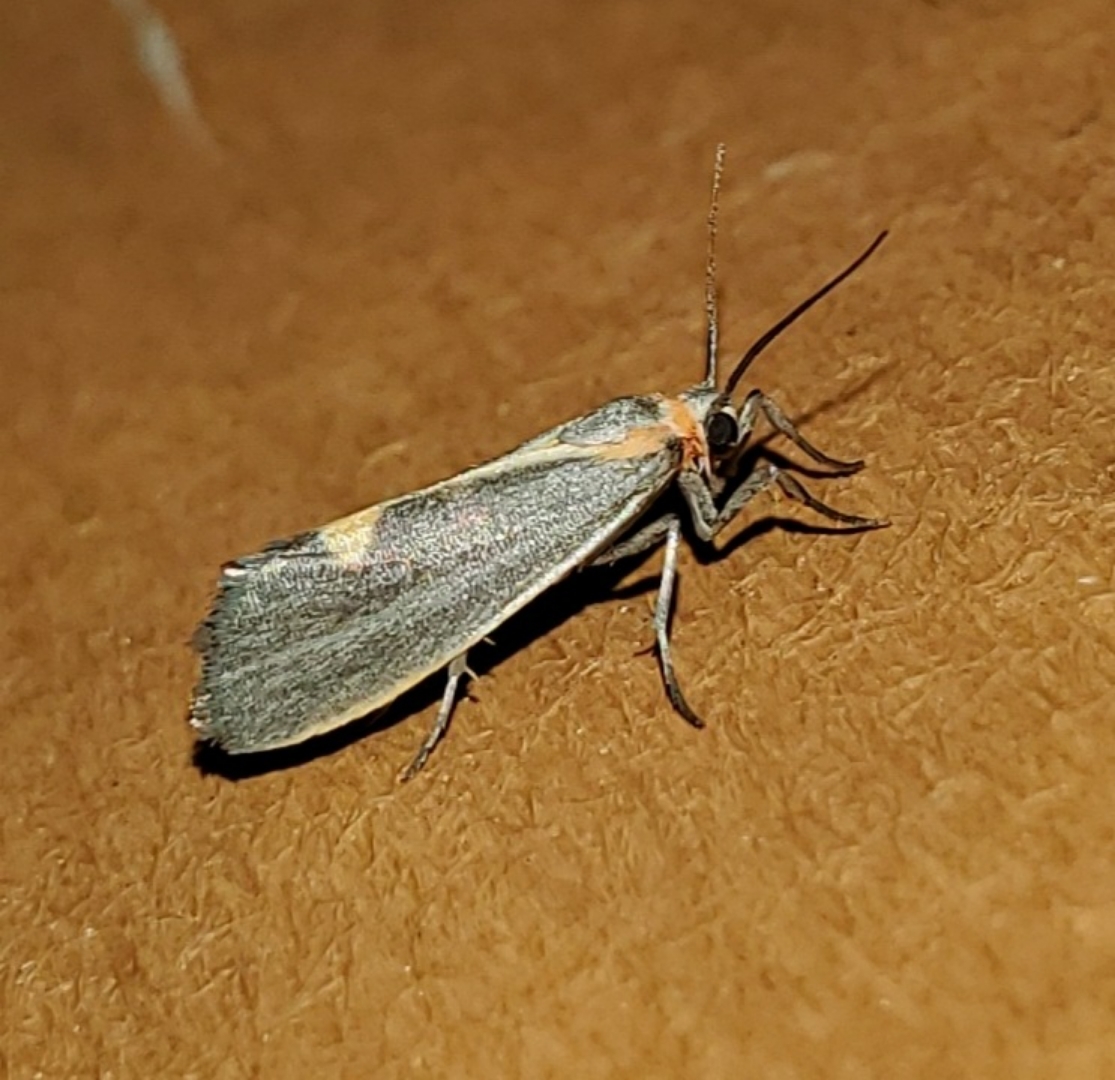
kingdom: Animalia
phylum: Arthropoda
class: Insecta
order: Lepidoptera
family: Erebidae
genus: Cisthene
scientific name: Cisthene plumbea
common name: Lead colored lichen moth
